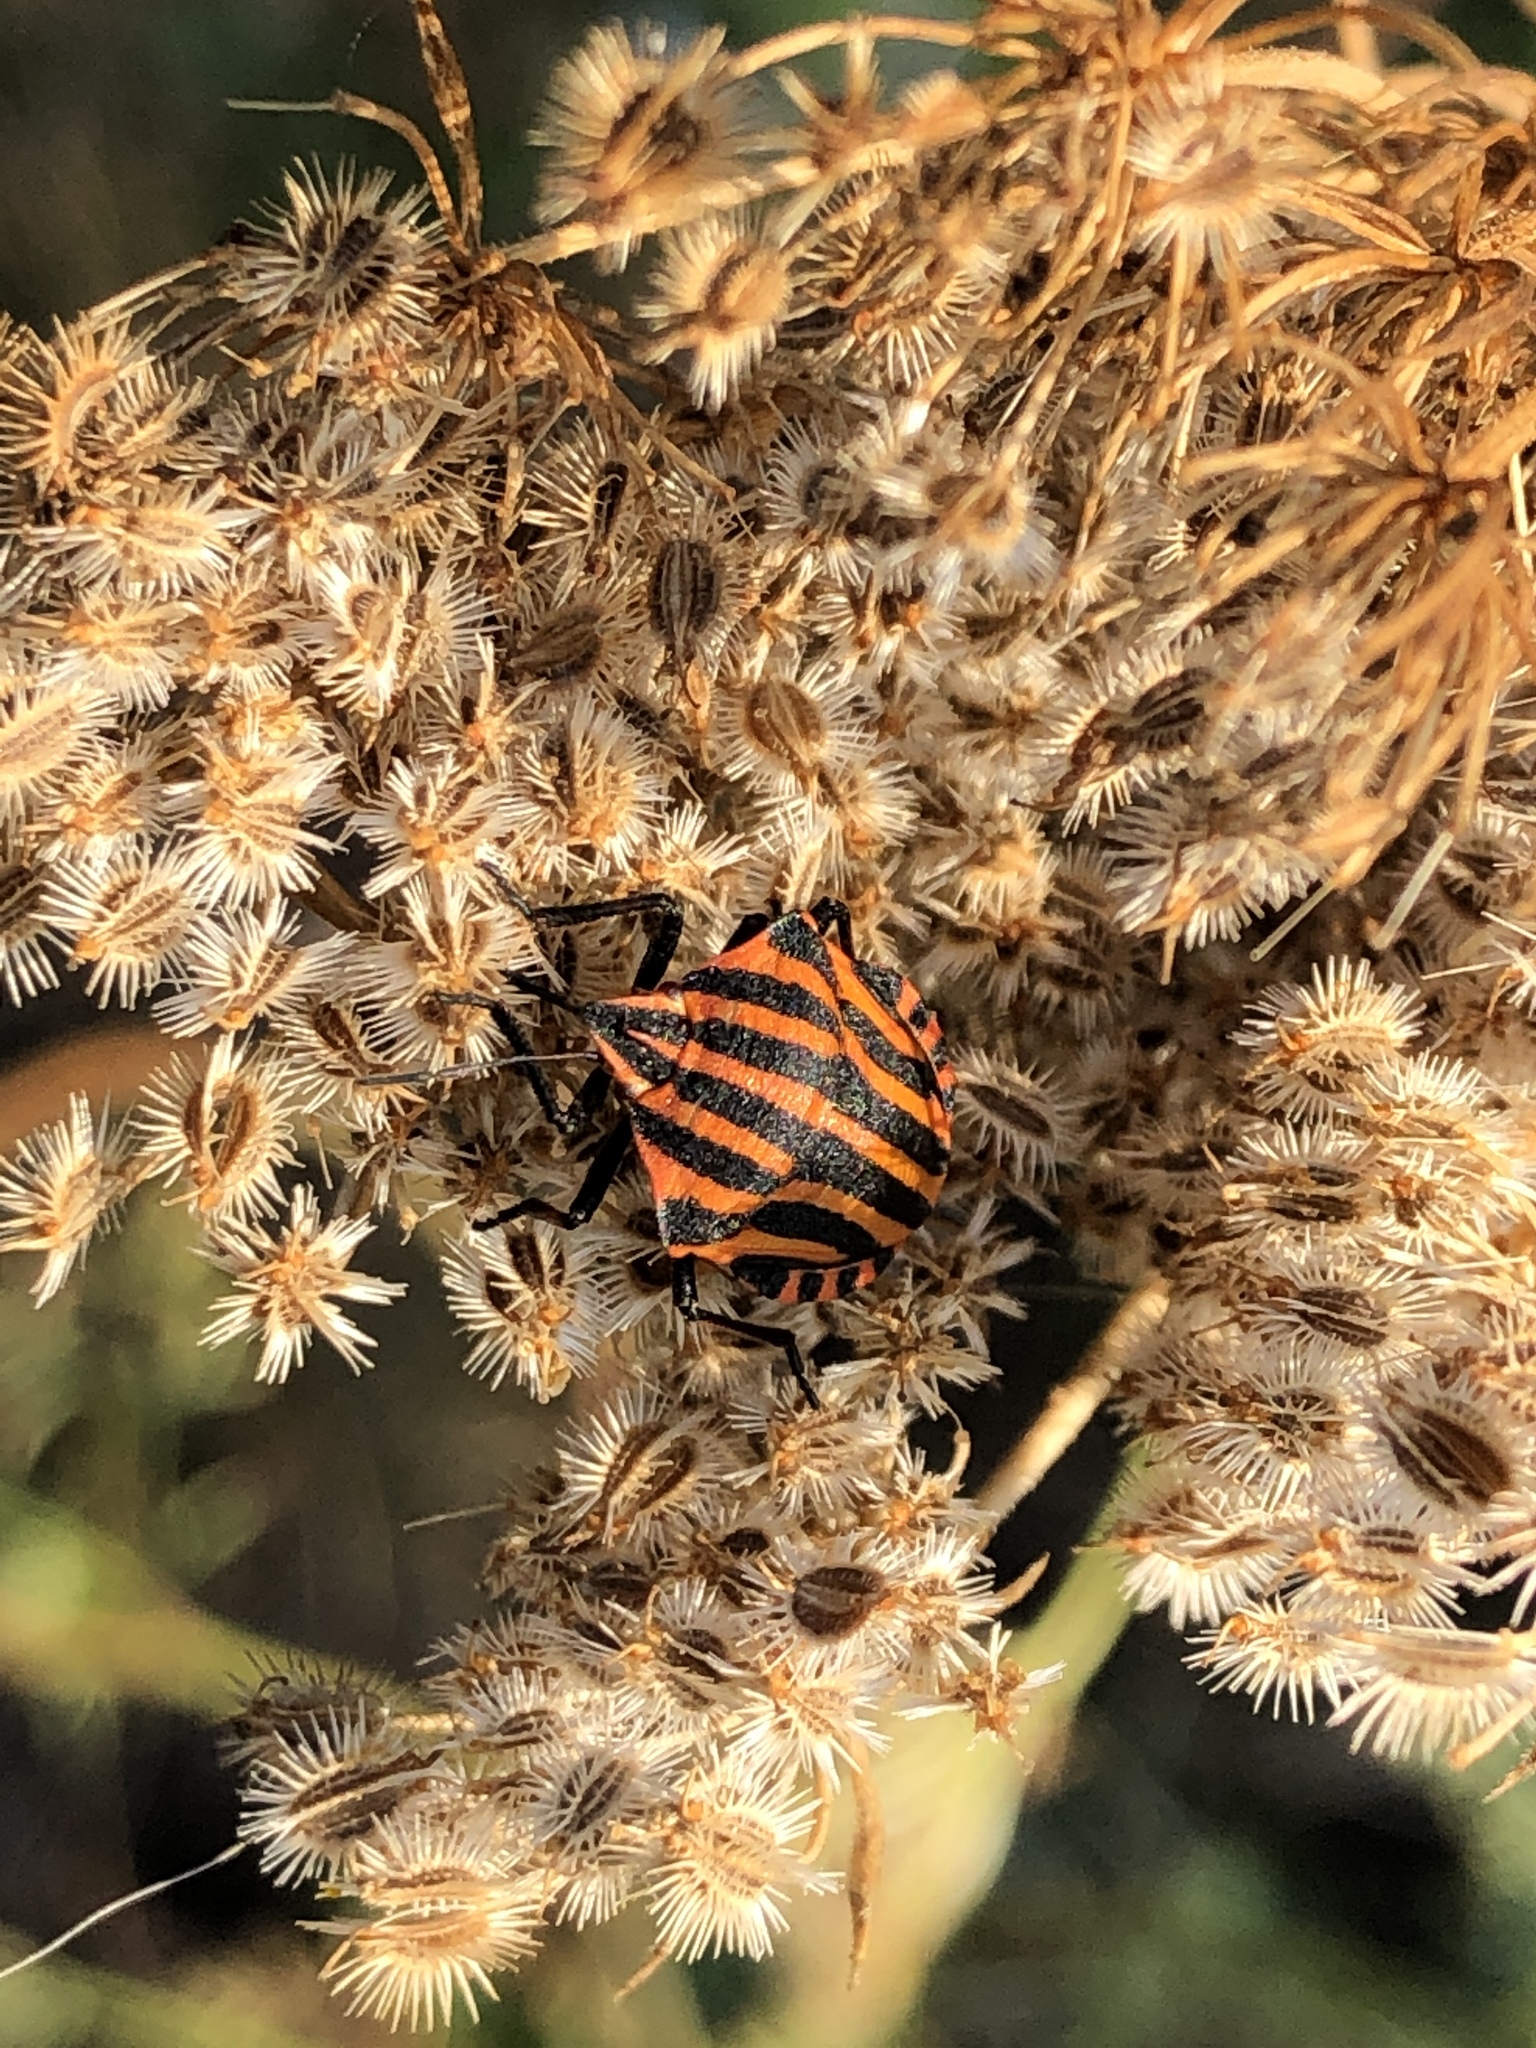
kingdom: Animalia
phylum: Arthropoda
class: Insecta
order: Hemiptera
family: Pentatomidae
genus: Graphosoma
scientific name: Graphosoma italicum
